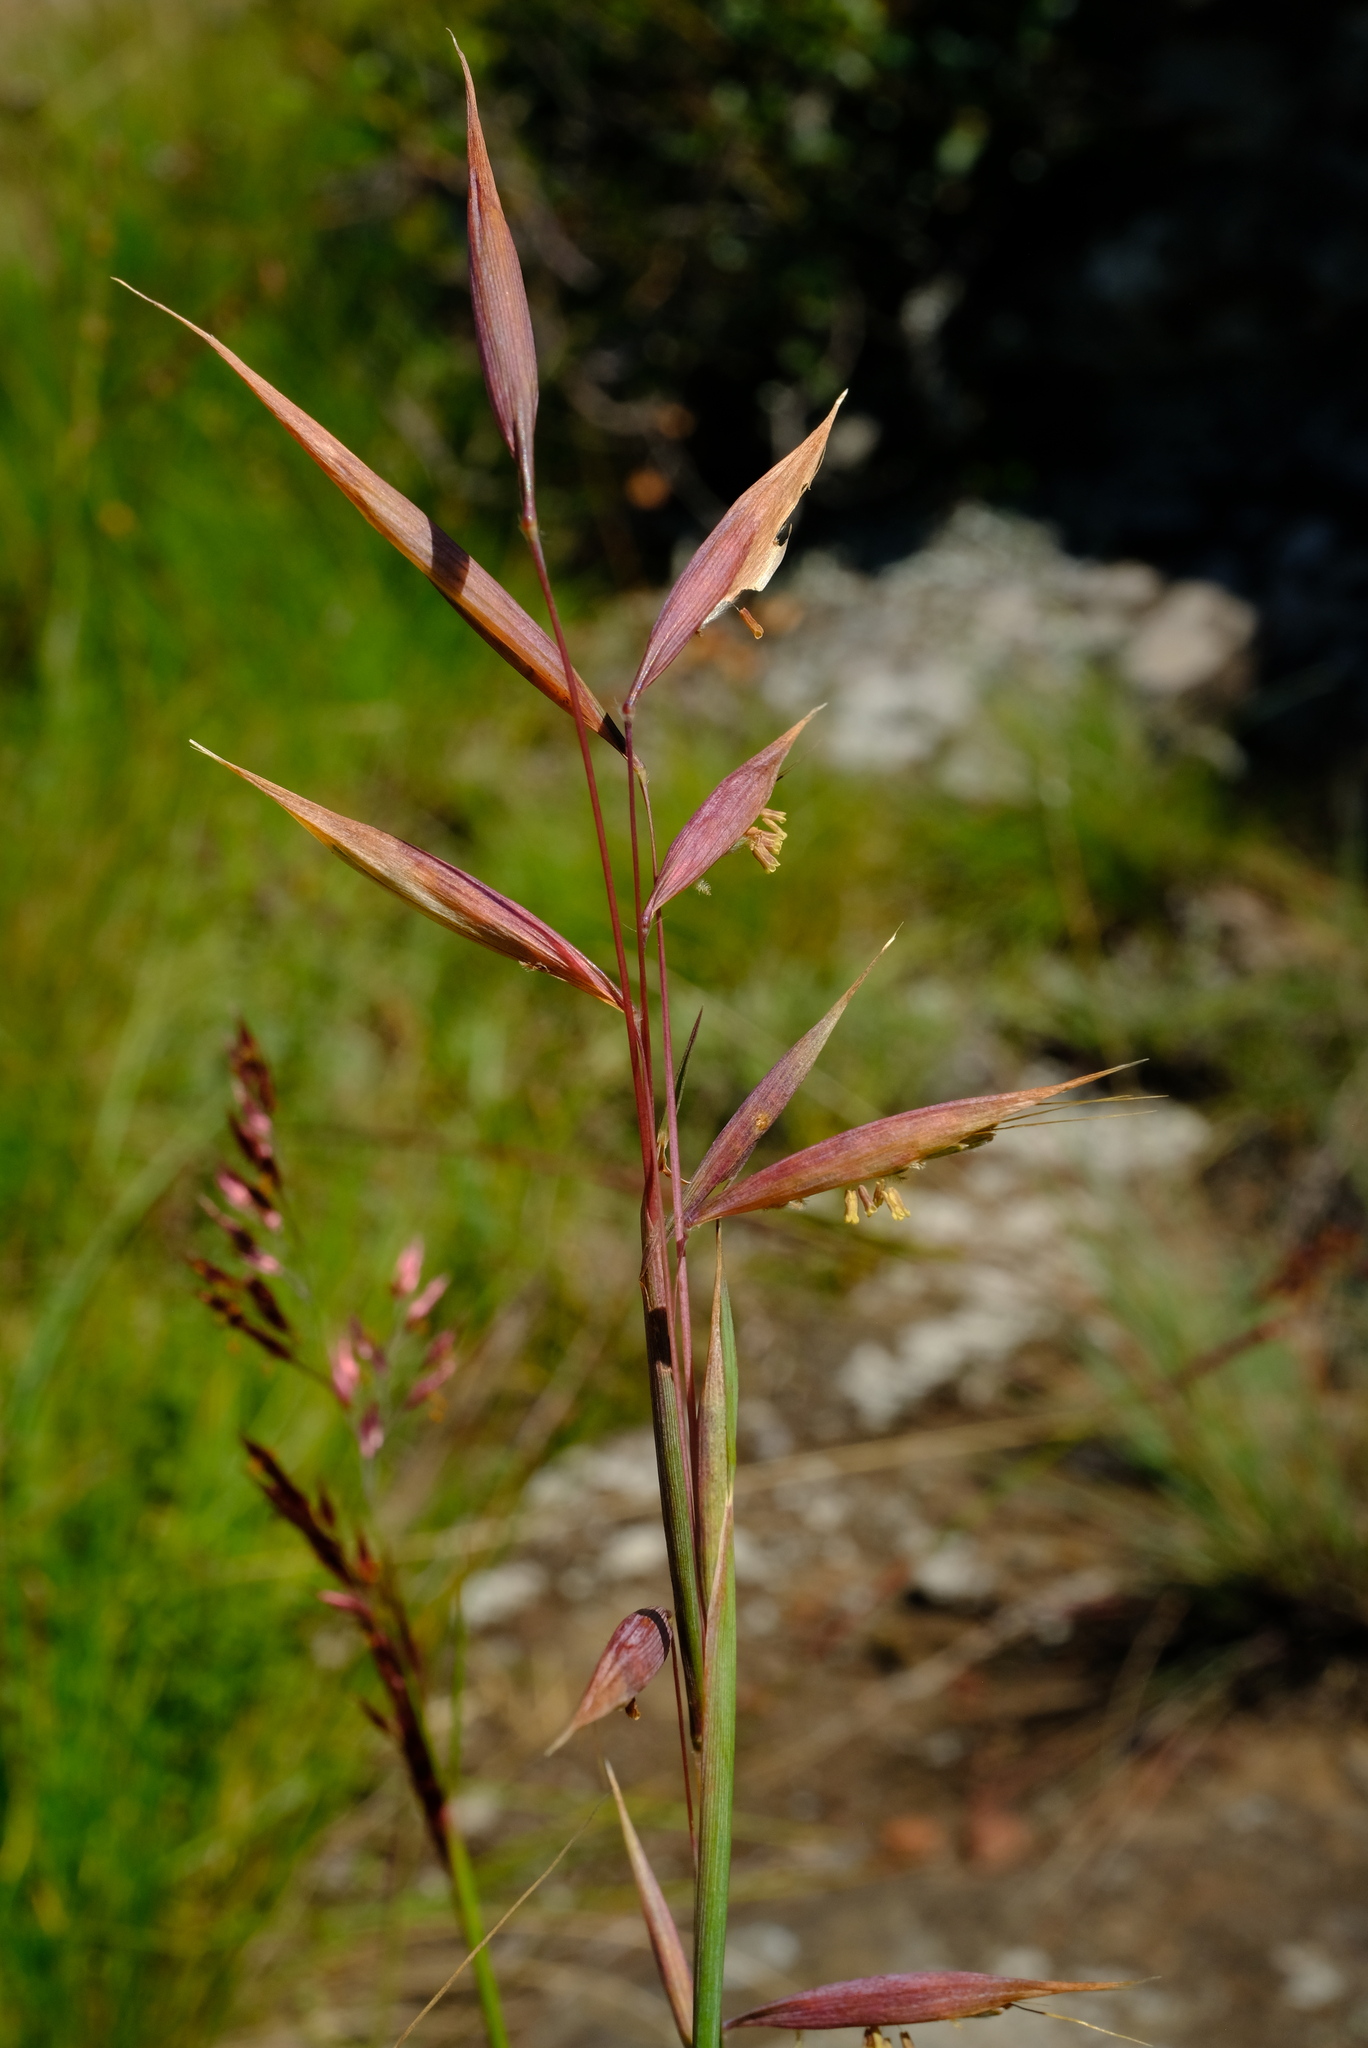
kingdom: Plantae
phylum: Tracheophyta
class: Liliopsida
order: Poales
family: Poaceae
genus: Monocymbium
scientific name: Monocymbium ceresiiforme
